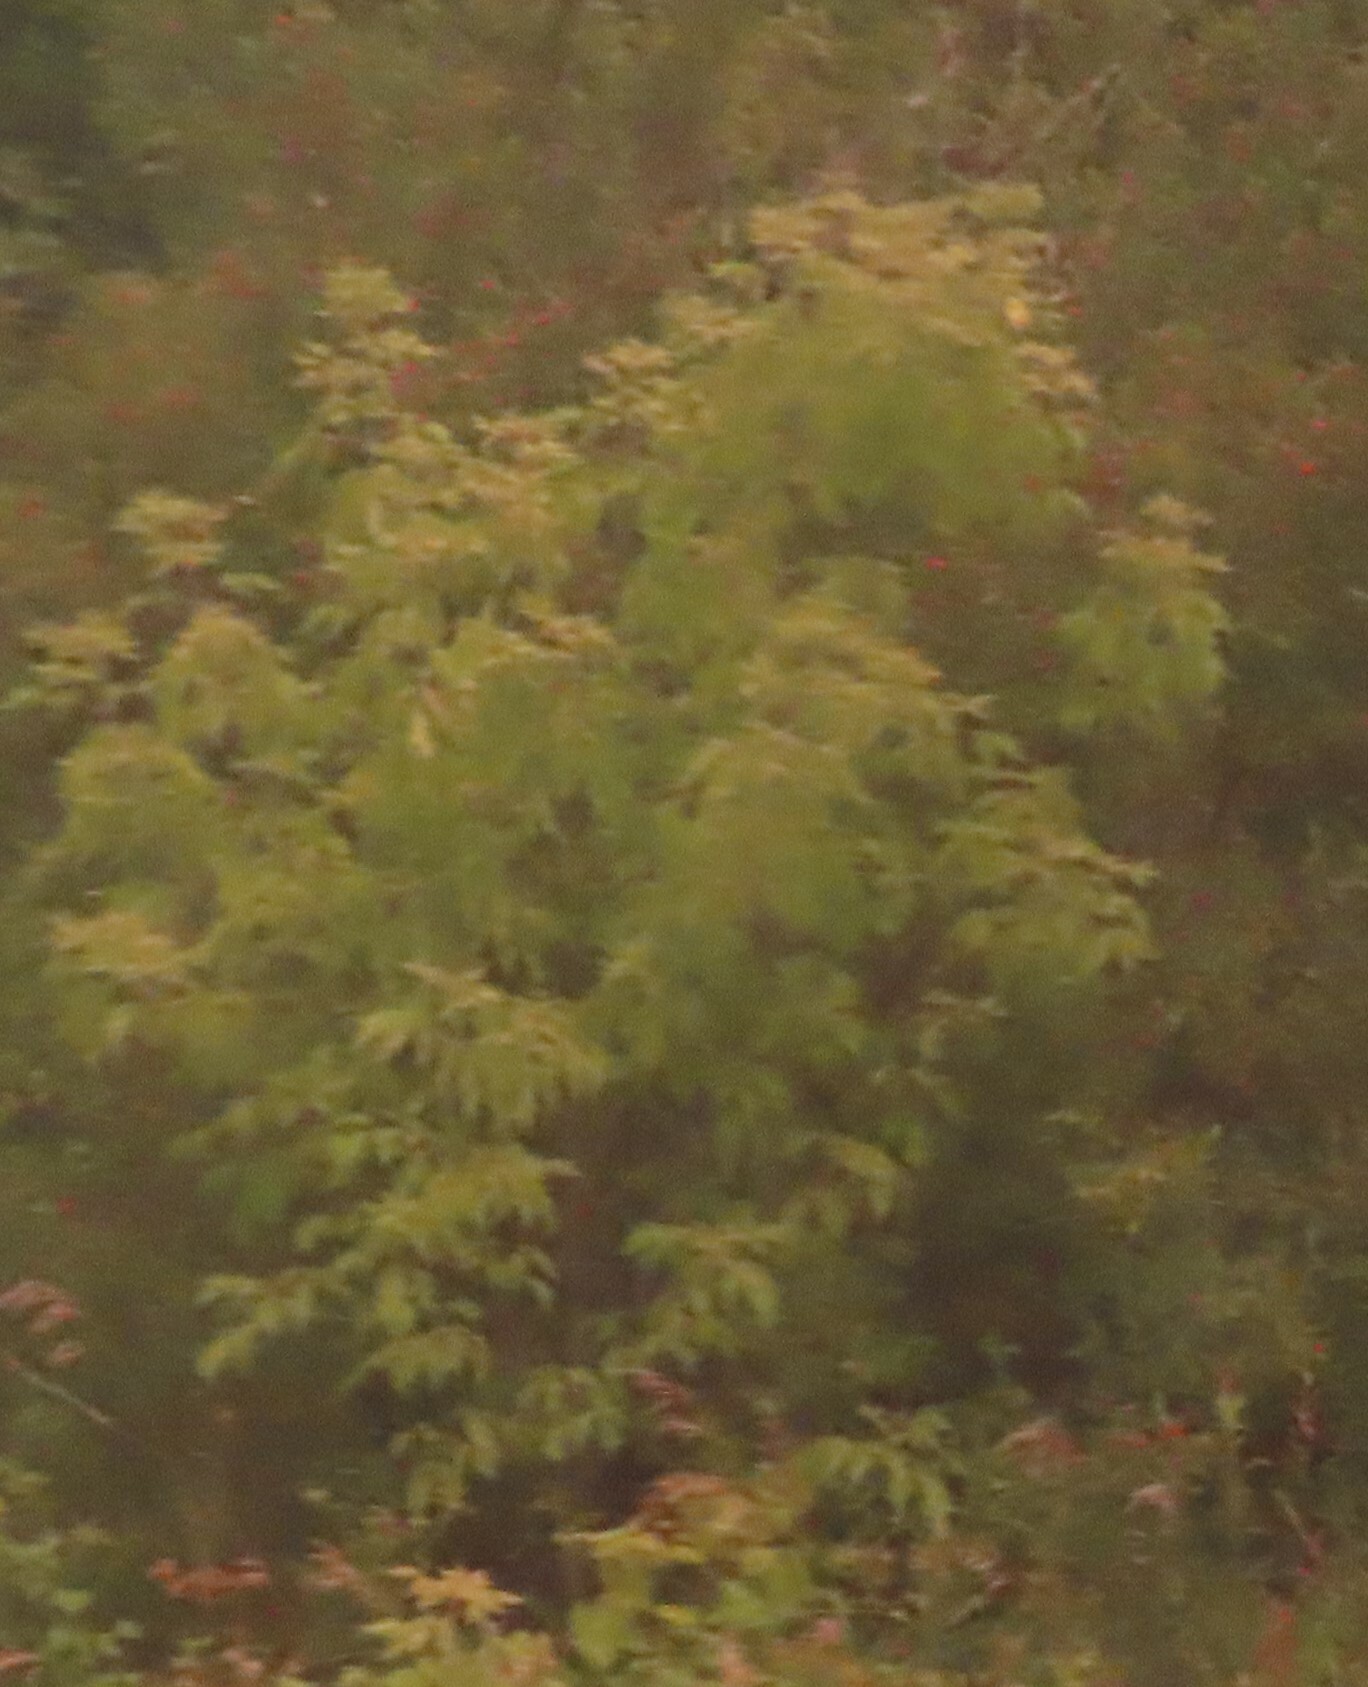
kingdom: Plantae
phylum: Tracheophyta
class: Magnoliopsida
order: Sapindales
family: Sapindaceae
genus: Acer
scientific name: Acer negundo
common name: Ashleaf maple
